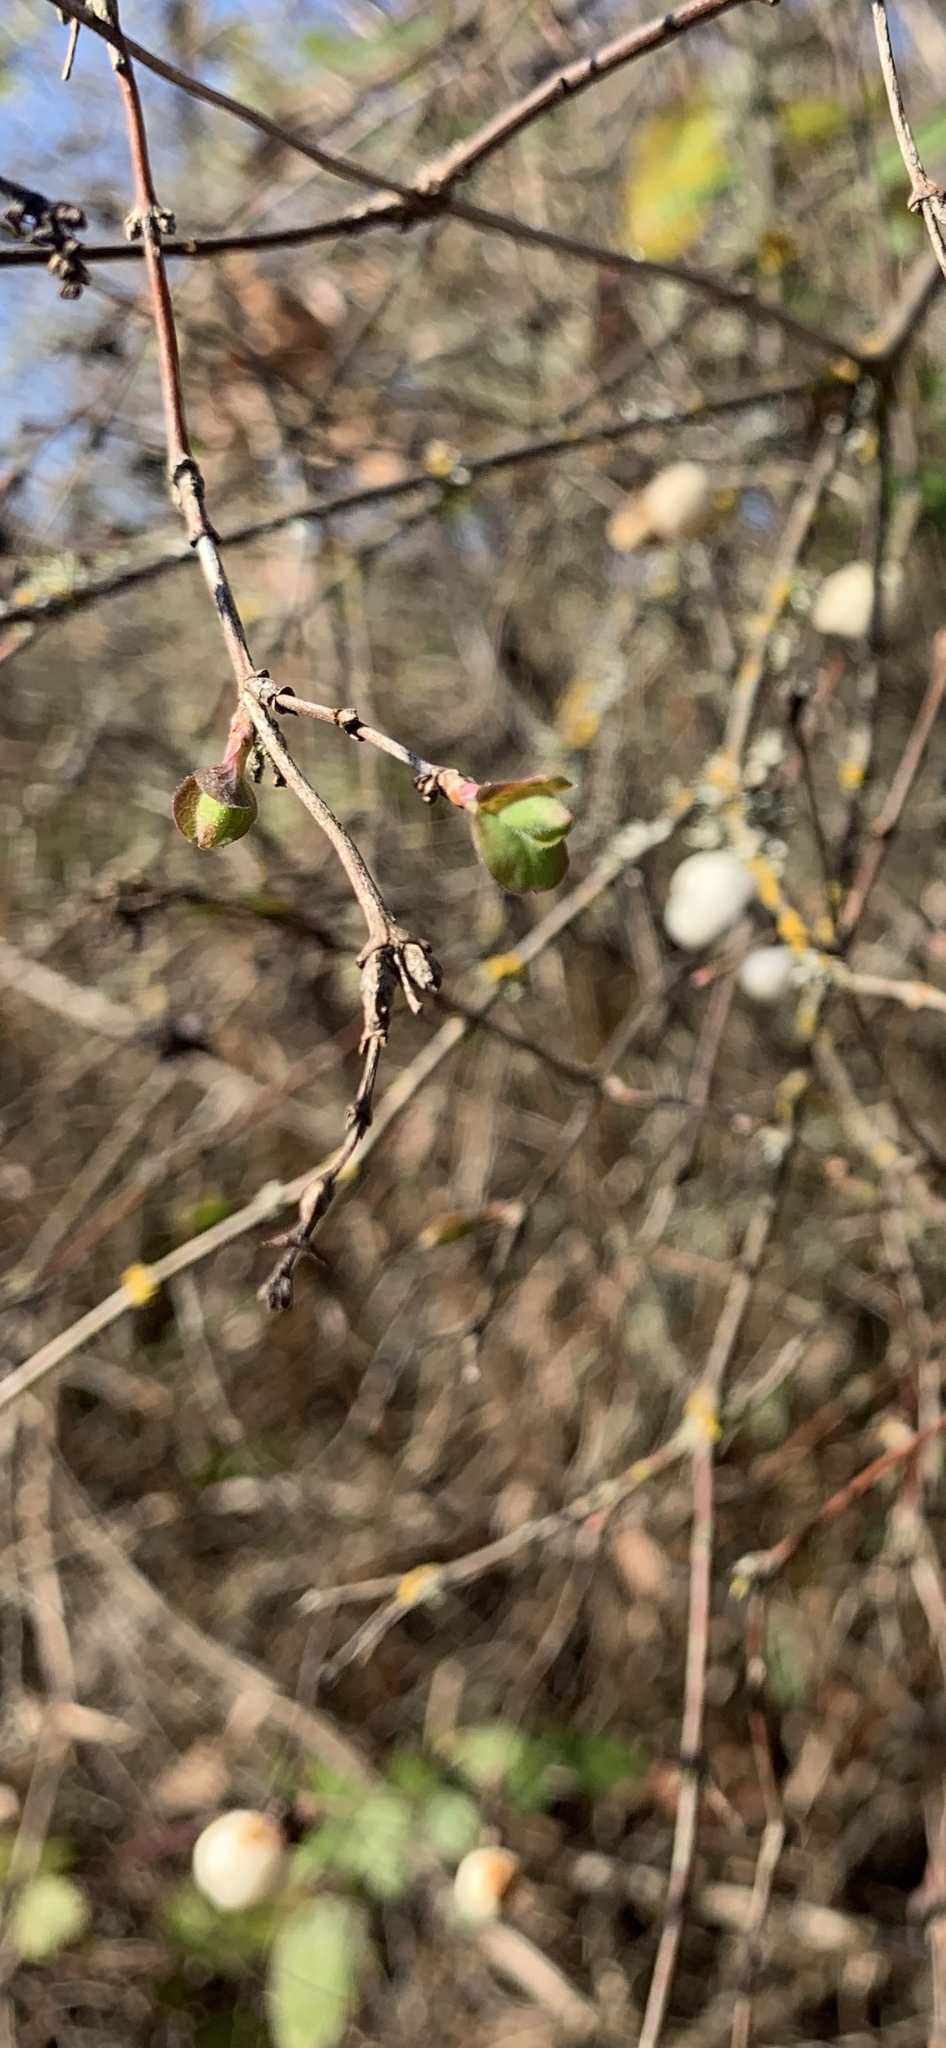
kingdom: Plantae
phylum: Tracheophyta
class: Magnoliopsida
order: Dipsacales
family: Caprifoliaceae
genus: Symphoricarpos
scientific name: Symphoricarpos albus
